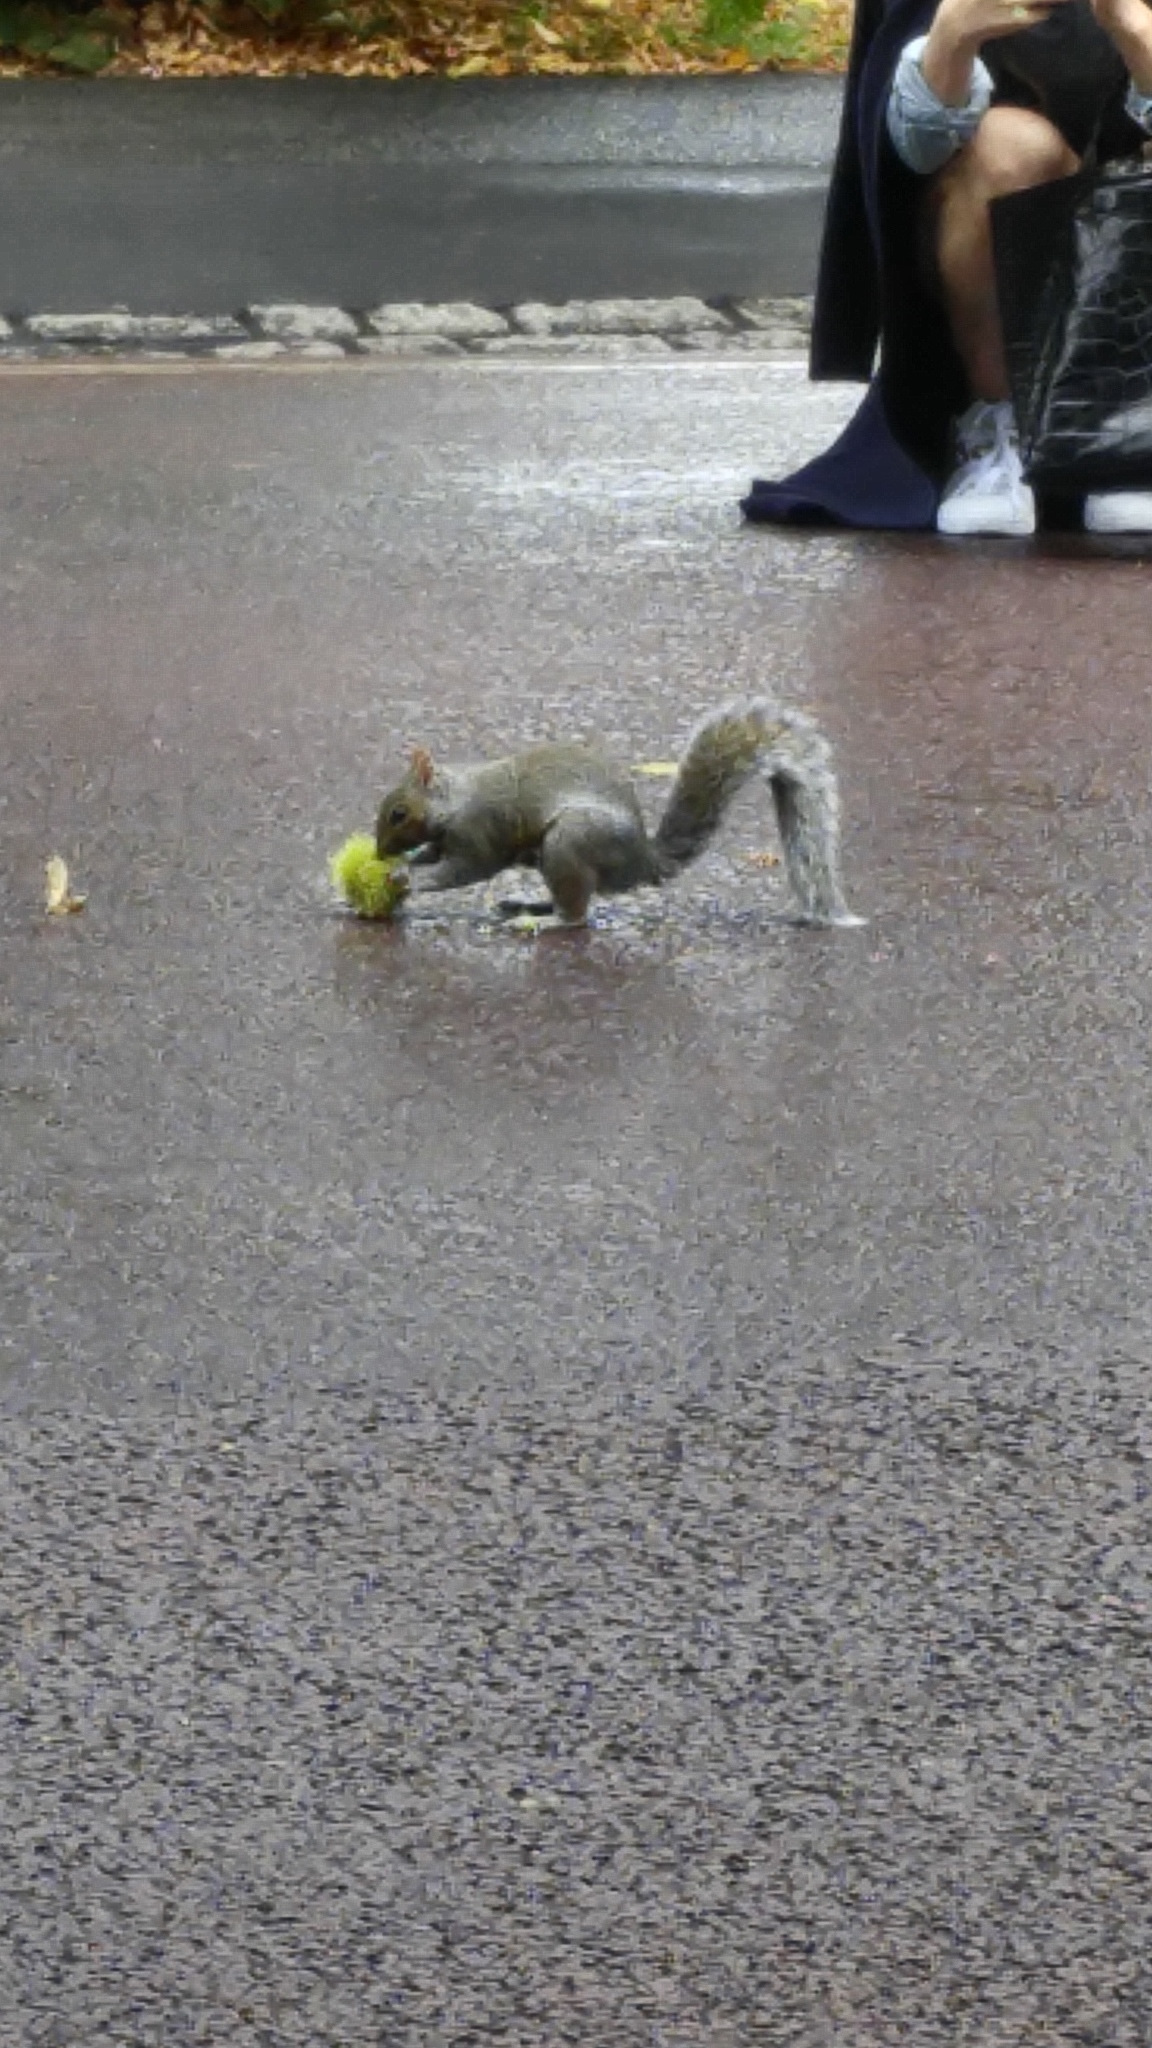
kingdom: Animalia
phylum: Chordata
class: Mammalia
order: Rodentia
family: Sciuridae
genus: Sciurus
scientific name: Sciurus carolinensis
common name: Eastern gray squirrel
